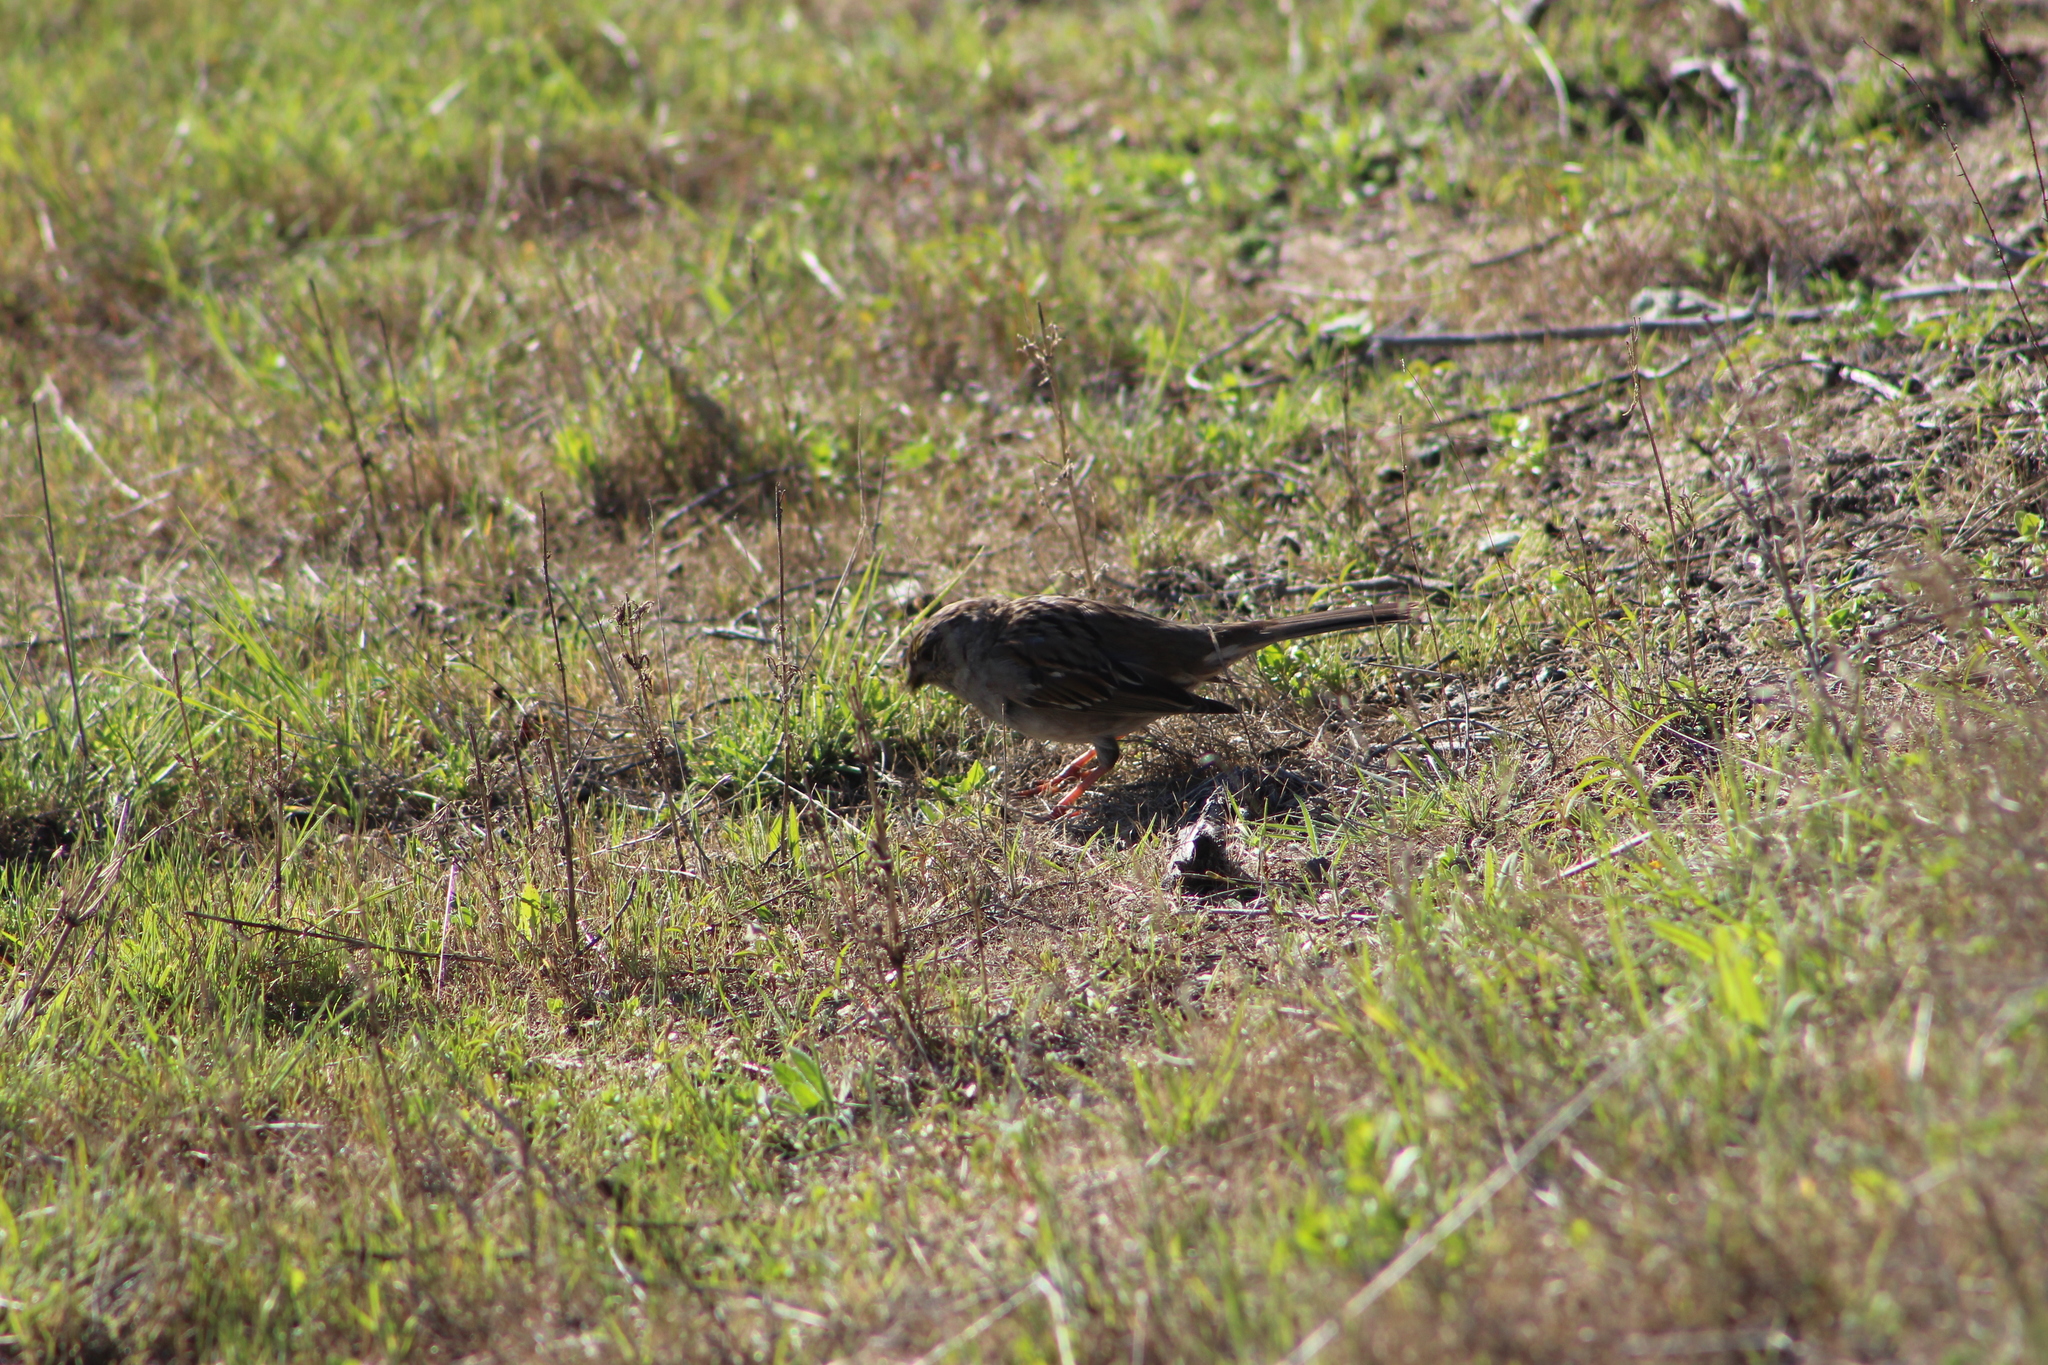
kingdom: Animalia
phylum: Chordata
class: Aves
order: Passeriformes
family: Passerellidae
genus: Zonotrichia
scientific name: Zonotrichia atricapilla
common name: Golden-crowned sparrow
